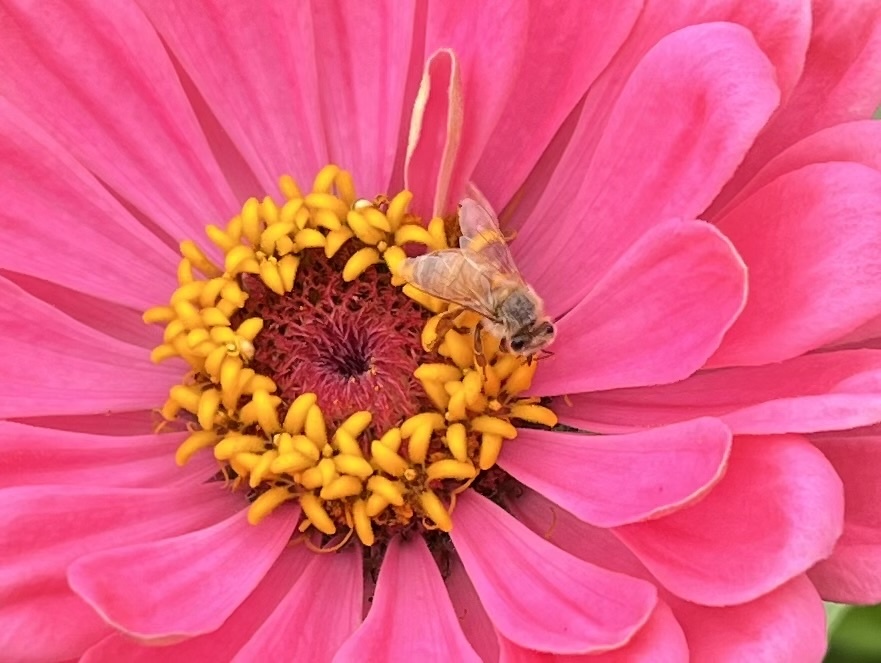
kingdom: Animalia
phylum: Arthropoda
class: Insecta
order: Hymenoptera
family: Apidae
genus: Apis
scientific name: Apis mellifera
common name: Honey bee
